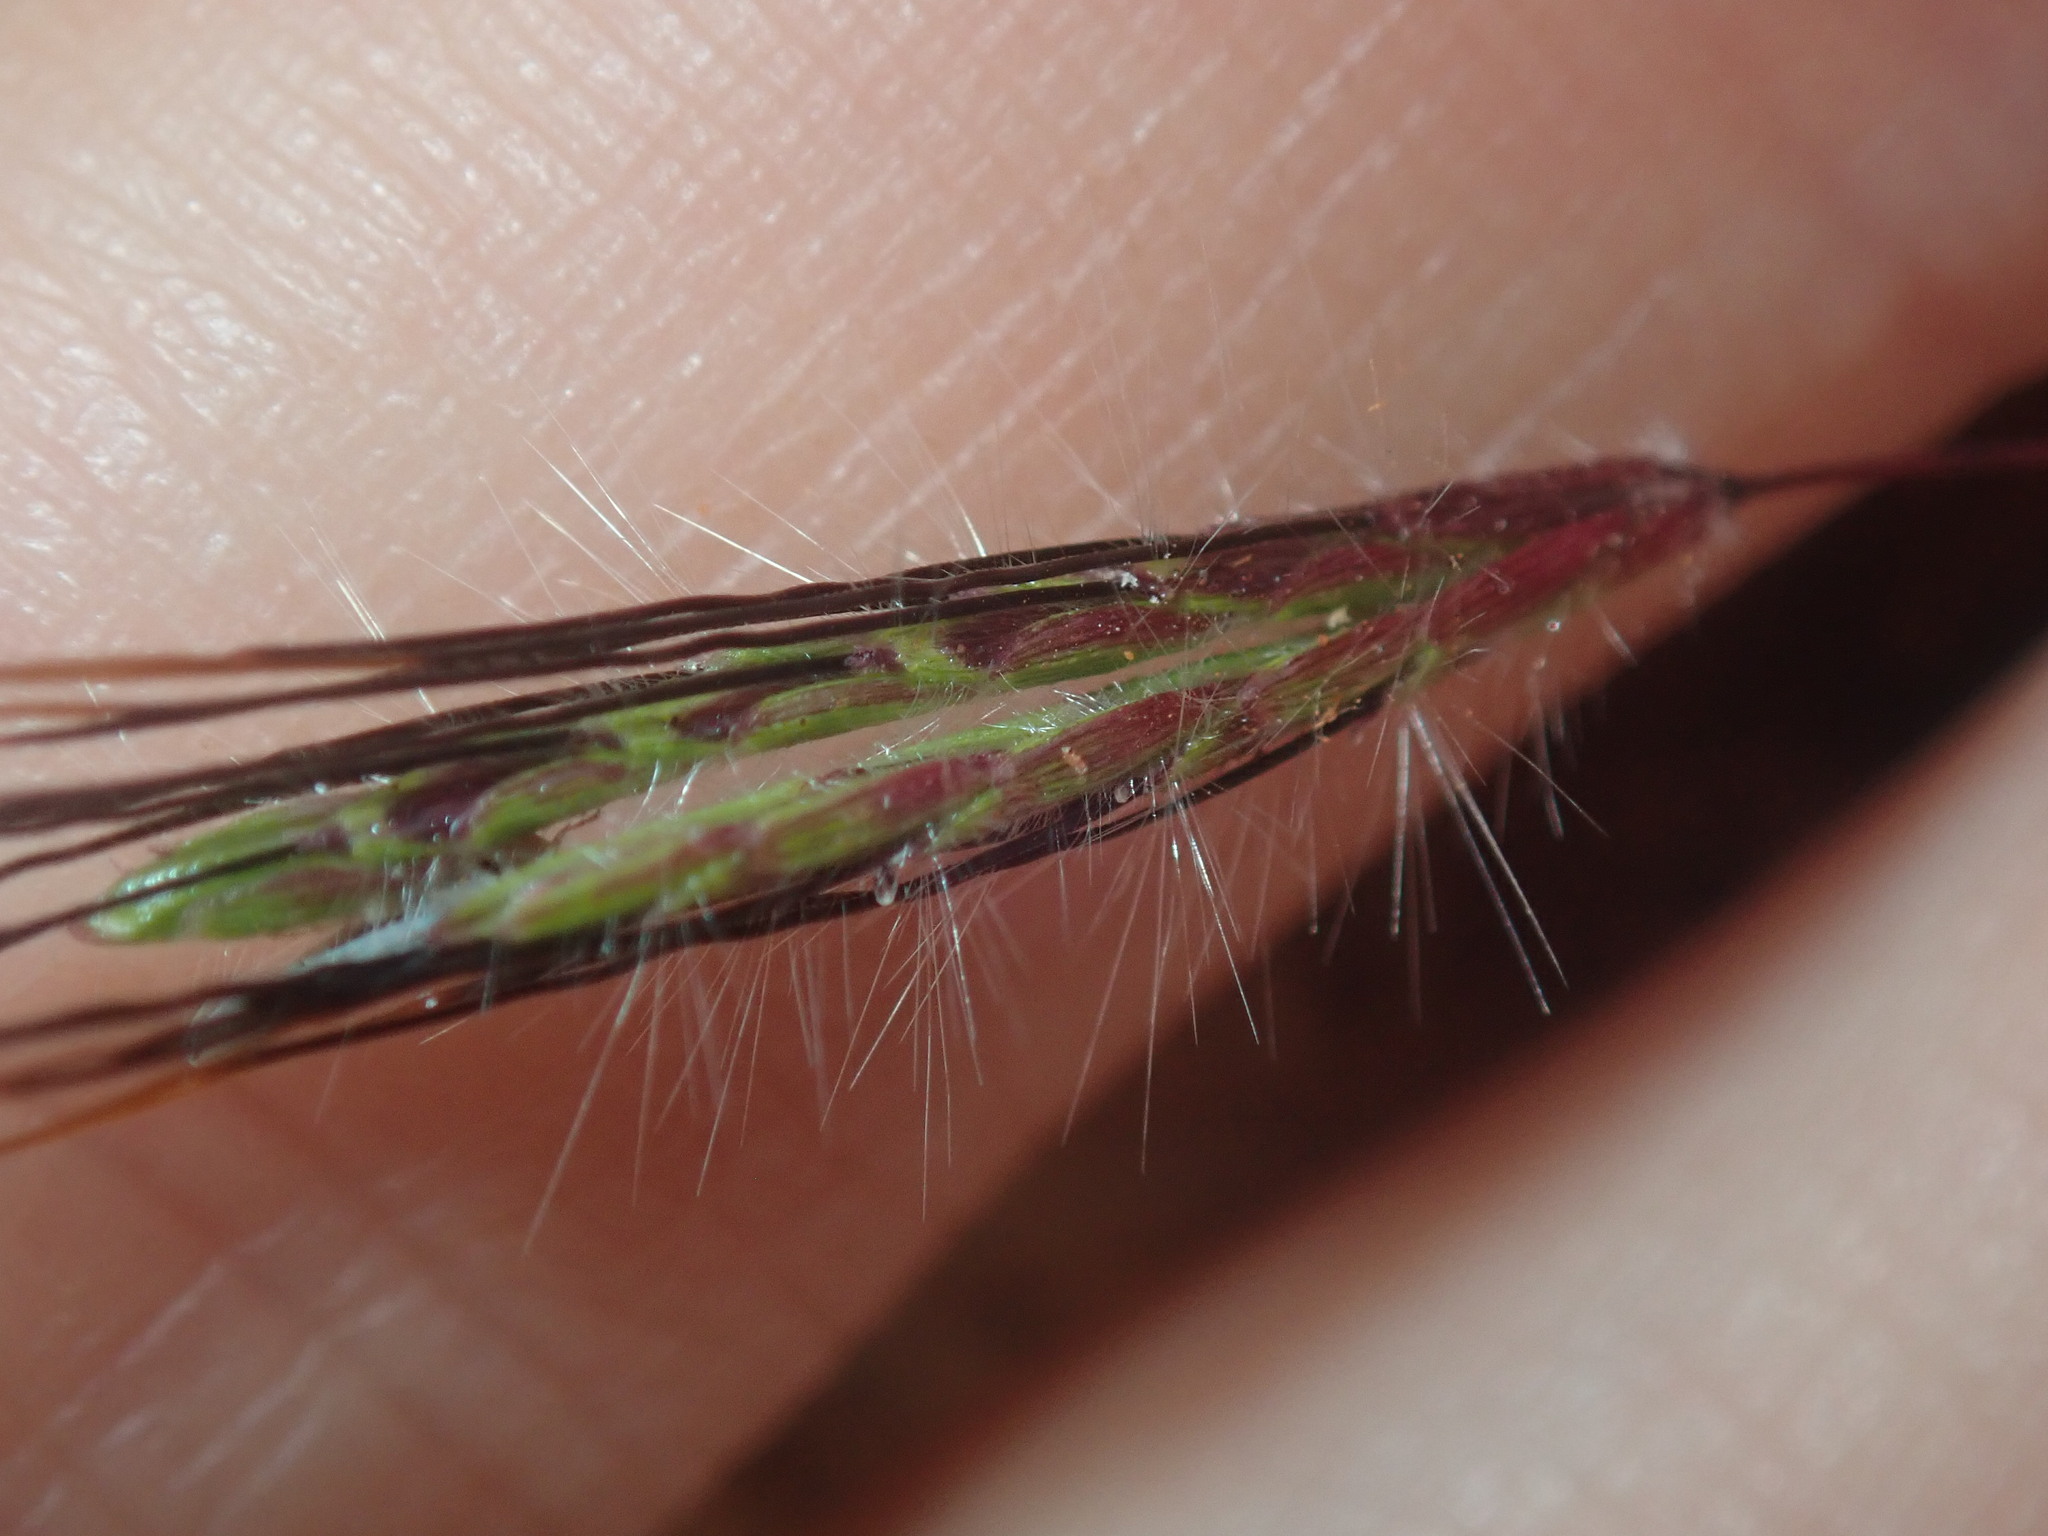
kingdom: Plantae
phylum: Tracheophyta
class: Liliopsida
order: Poales
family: Poaceae
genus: Dichanthium
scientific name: Dichanthium sericeum
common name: Silky bluestem
